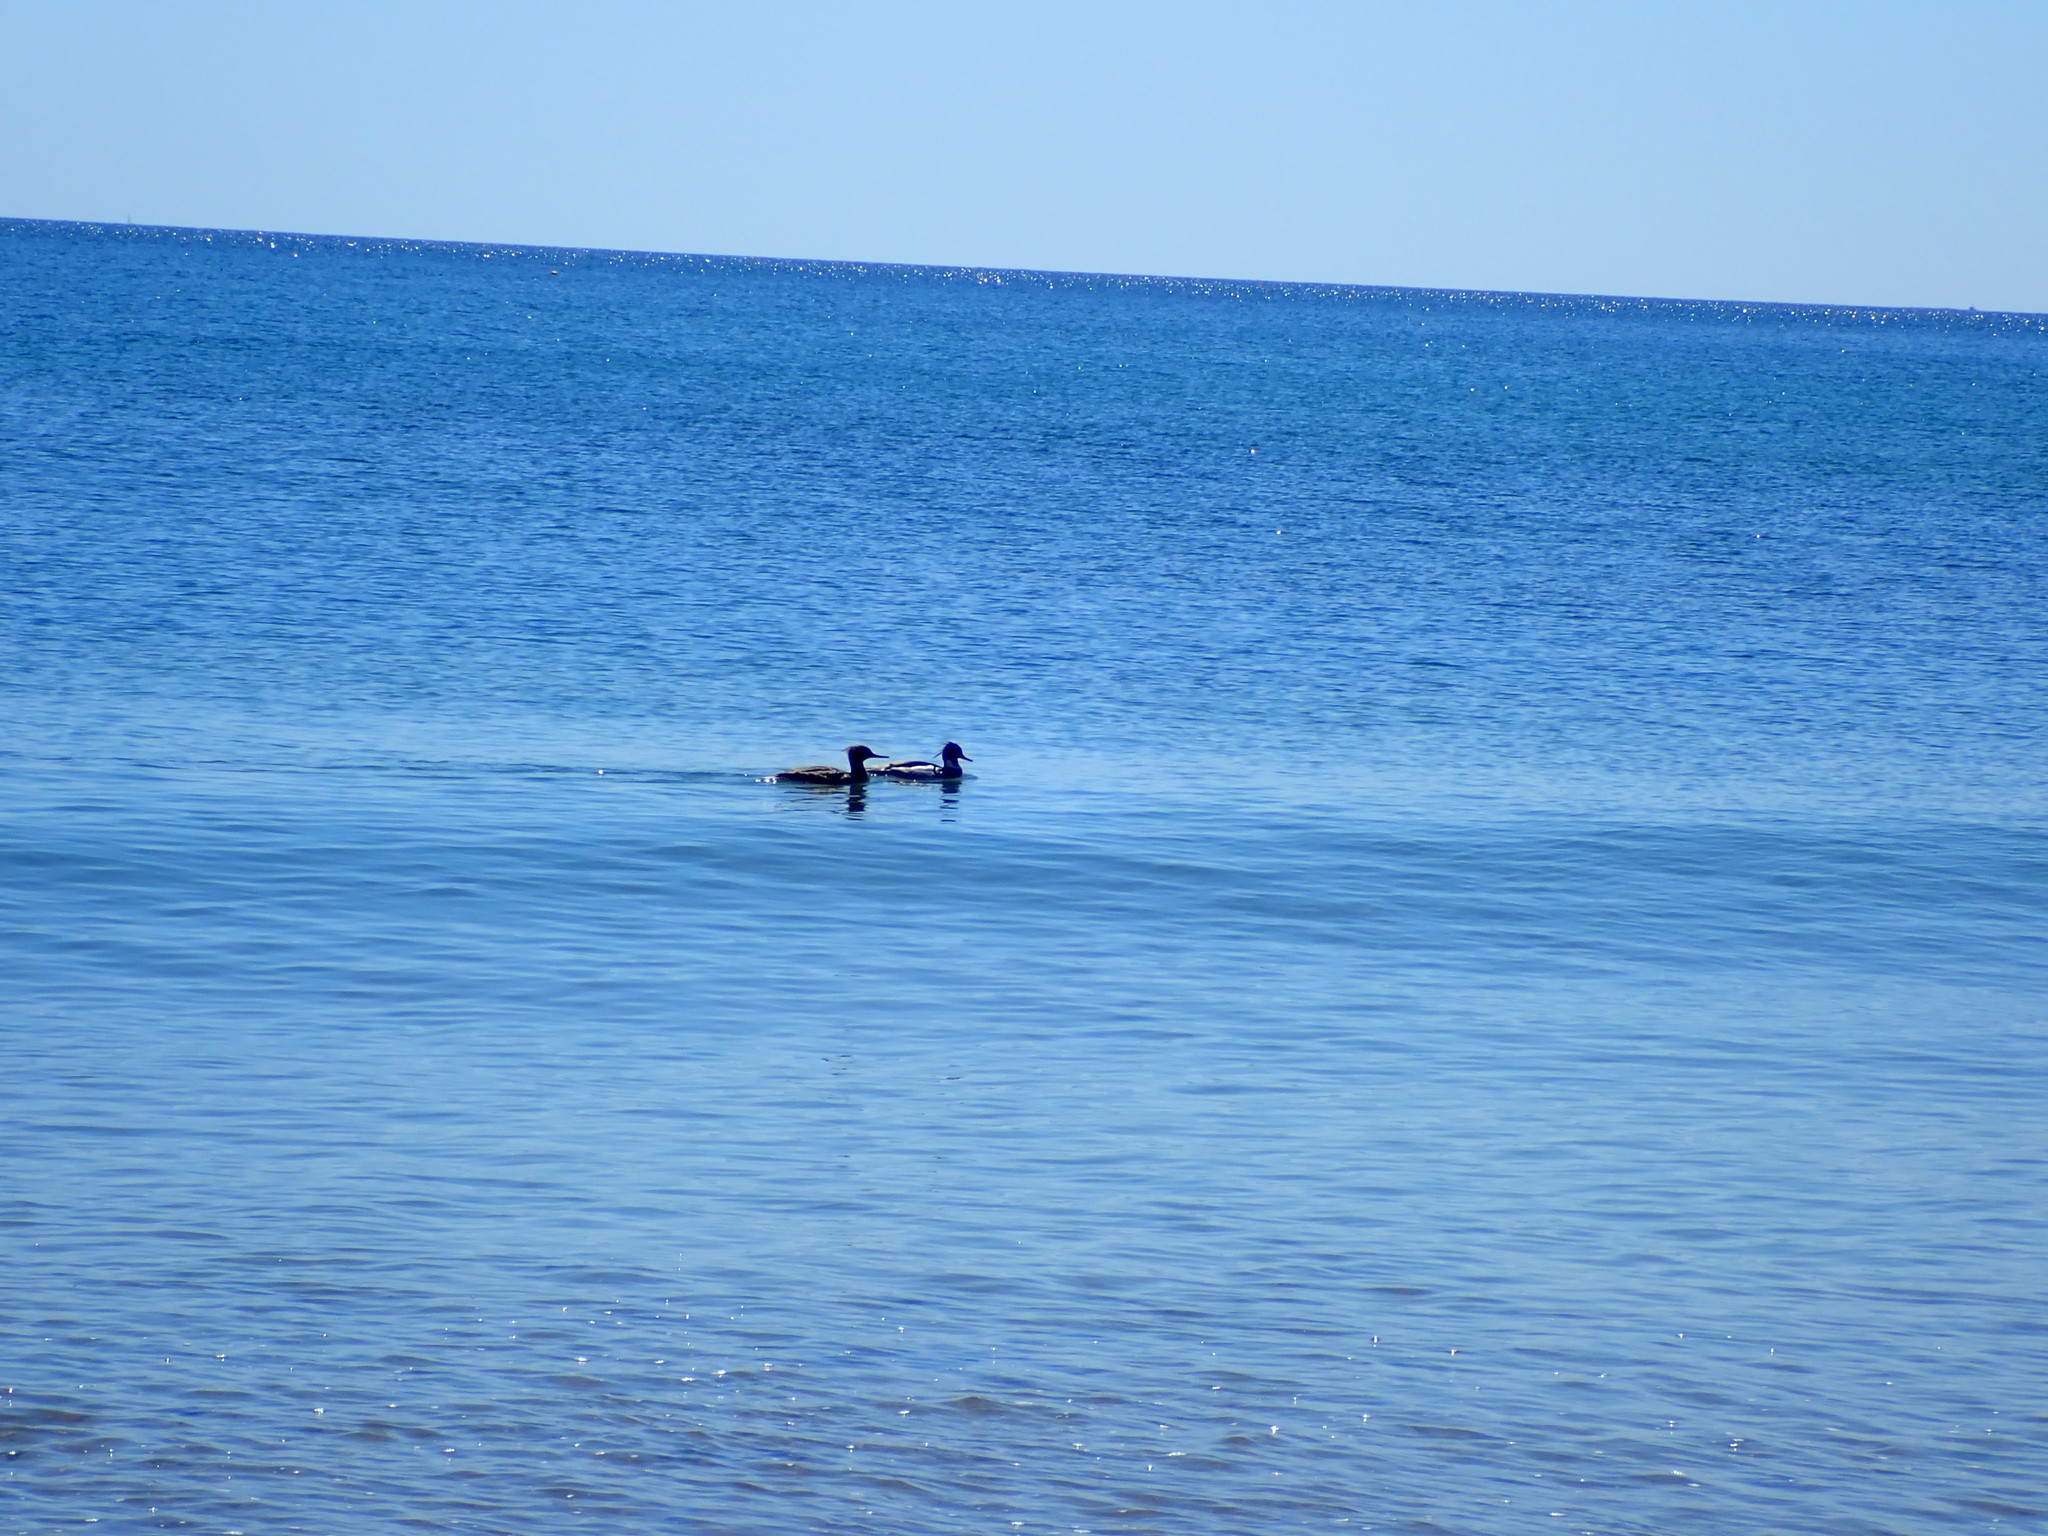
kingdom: Animalia
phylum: Chordata
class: Aves
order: Anseriformes
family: Anatidae
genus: Mergus
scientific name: Mergus serrator
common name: Red-breasted merganser
